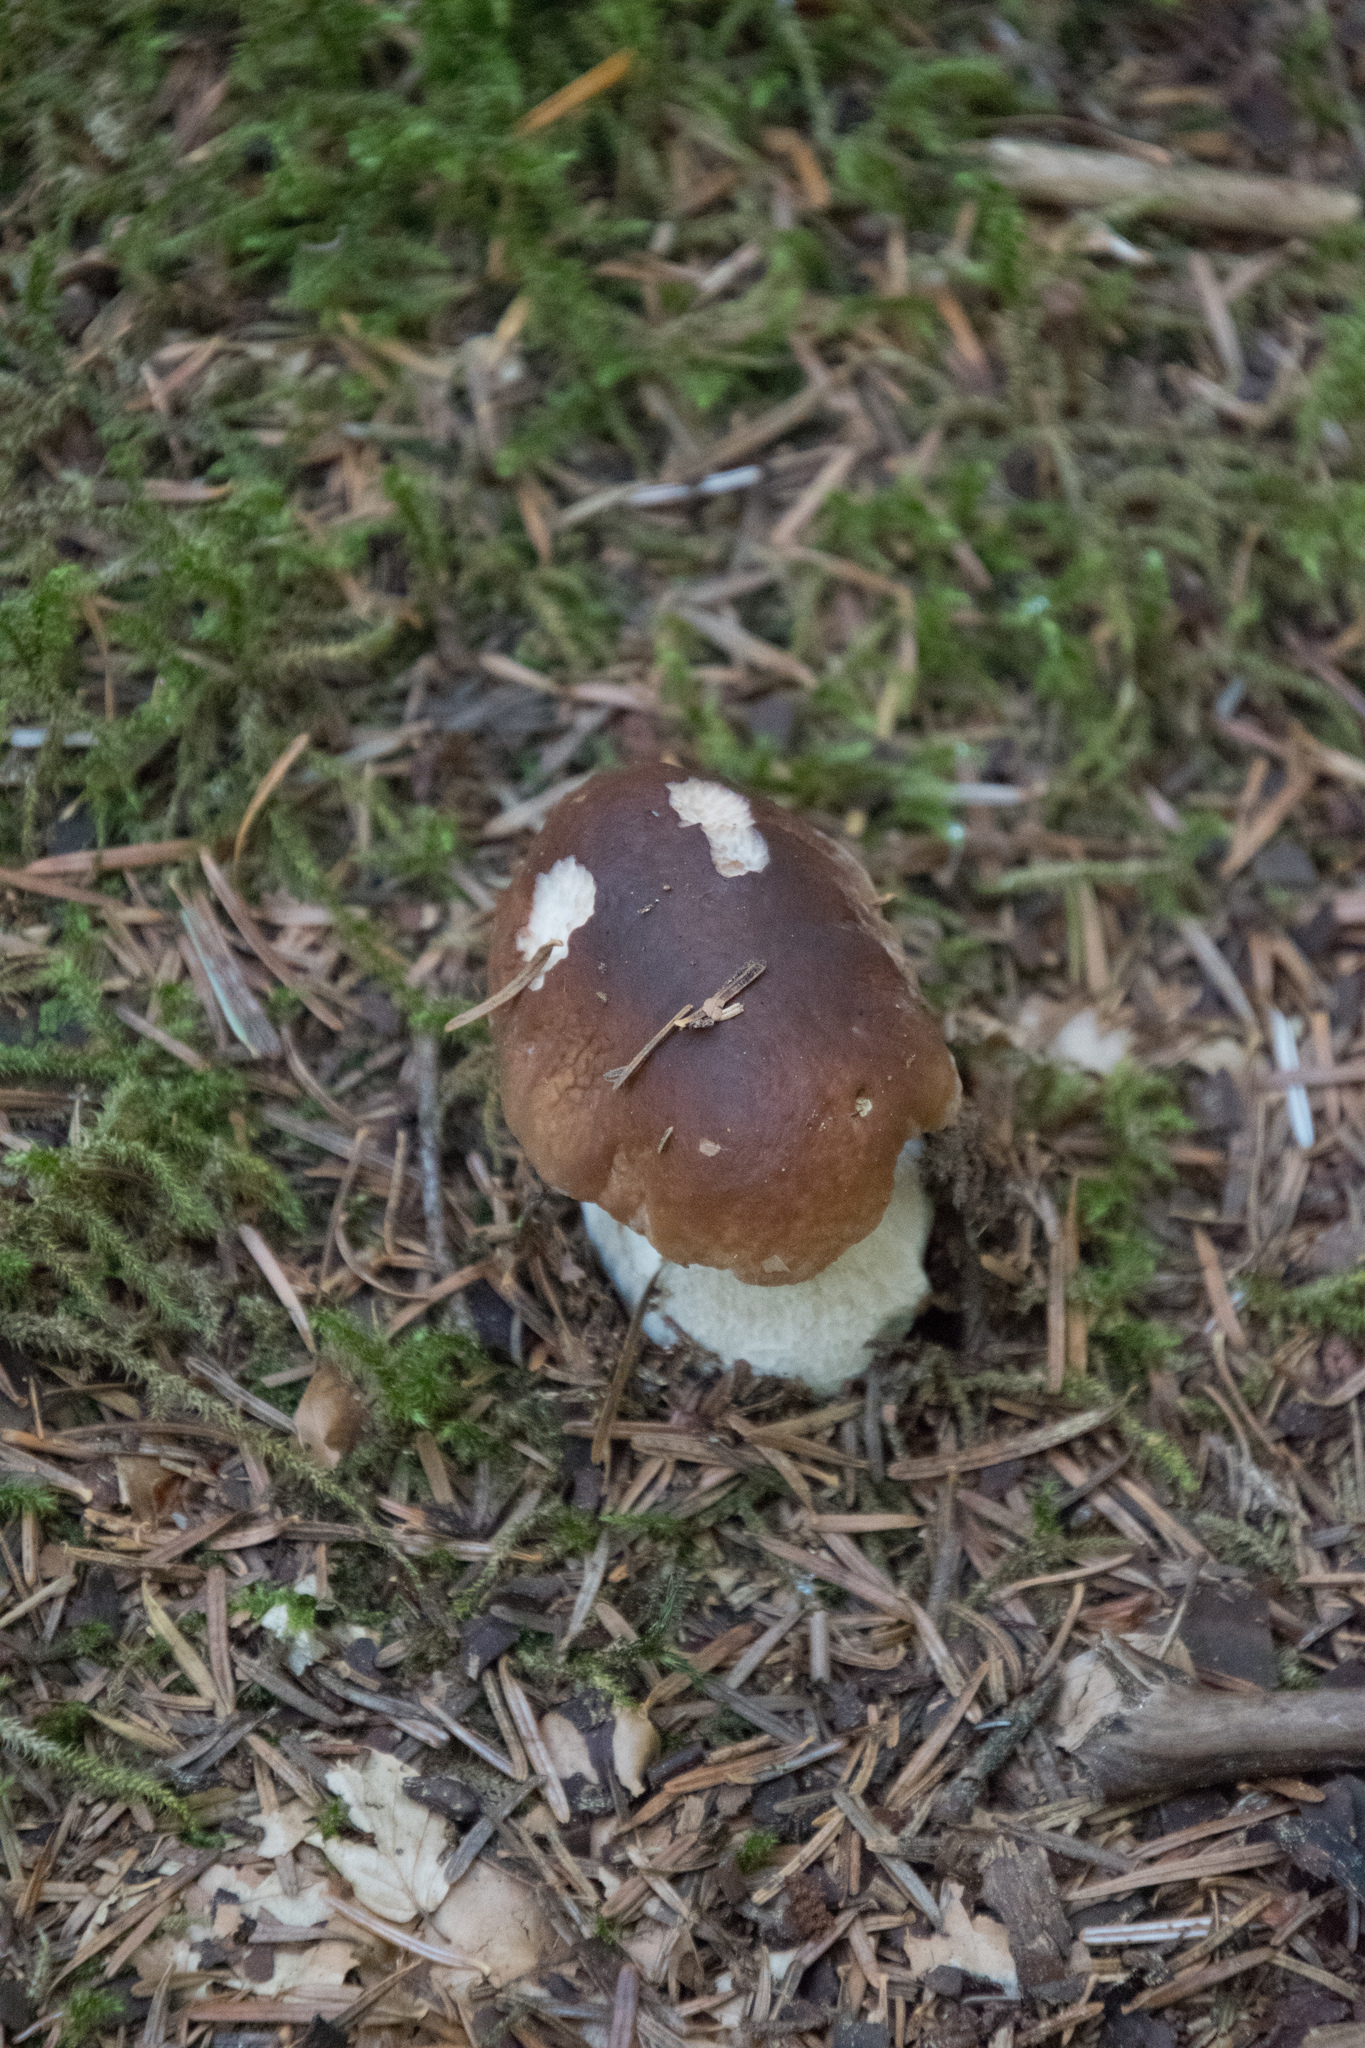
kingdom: Fungi
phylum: Basidiomycota
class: Agaricomycetes
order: Boletales
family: Boletaceae
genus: Boletus
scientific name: Boletus edulis
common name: Cep
